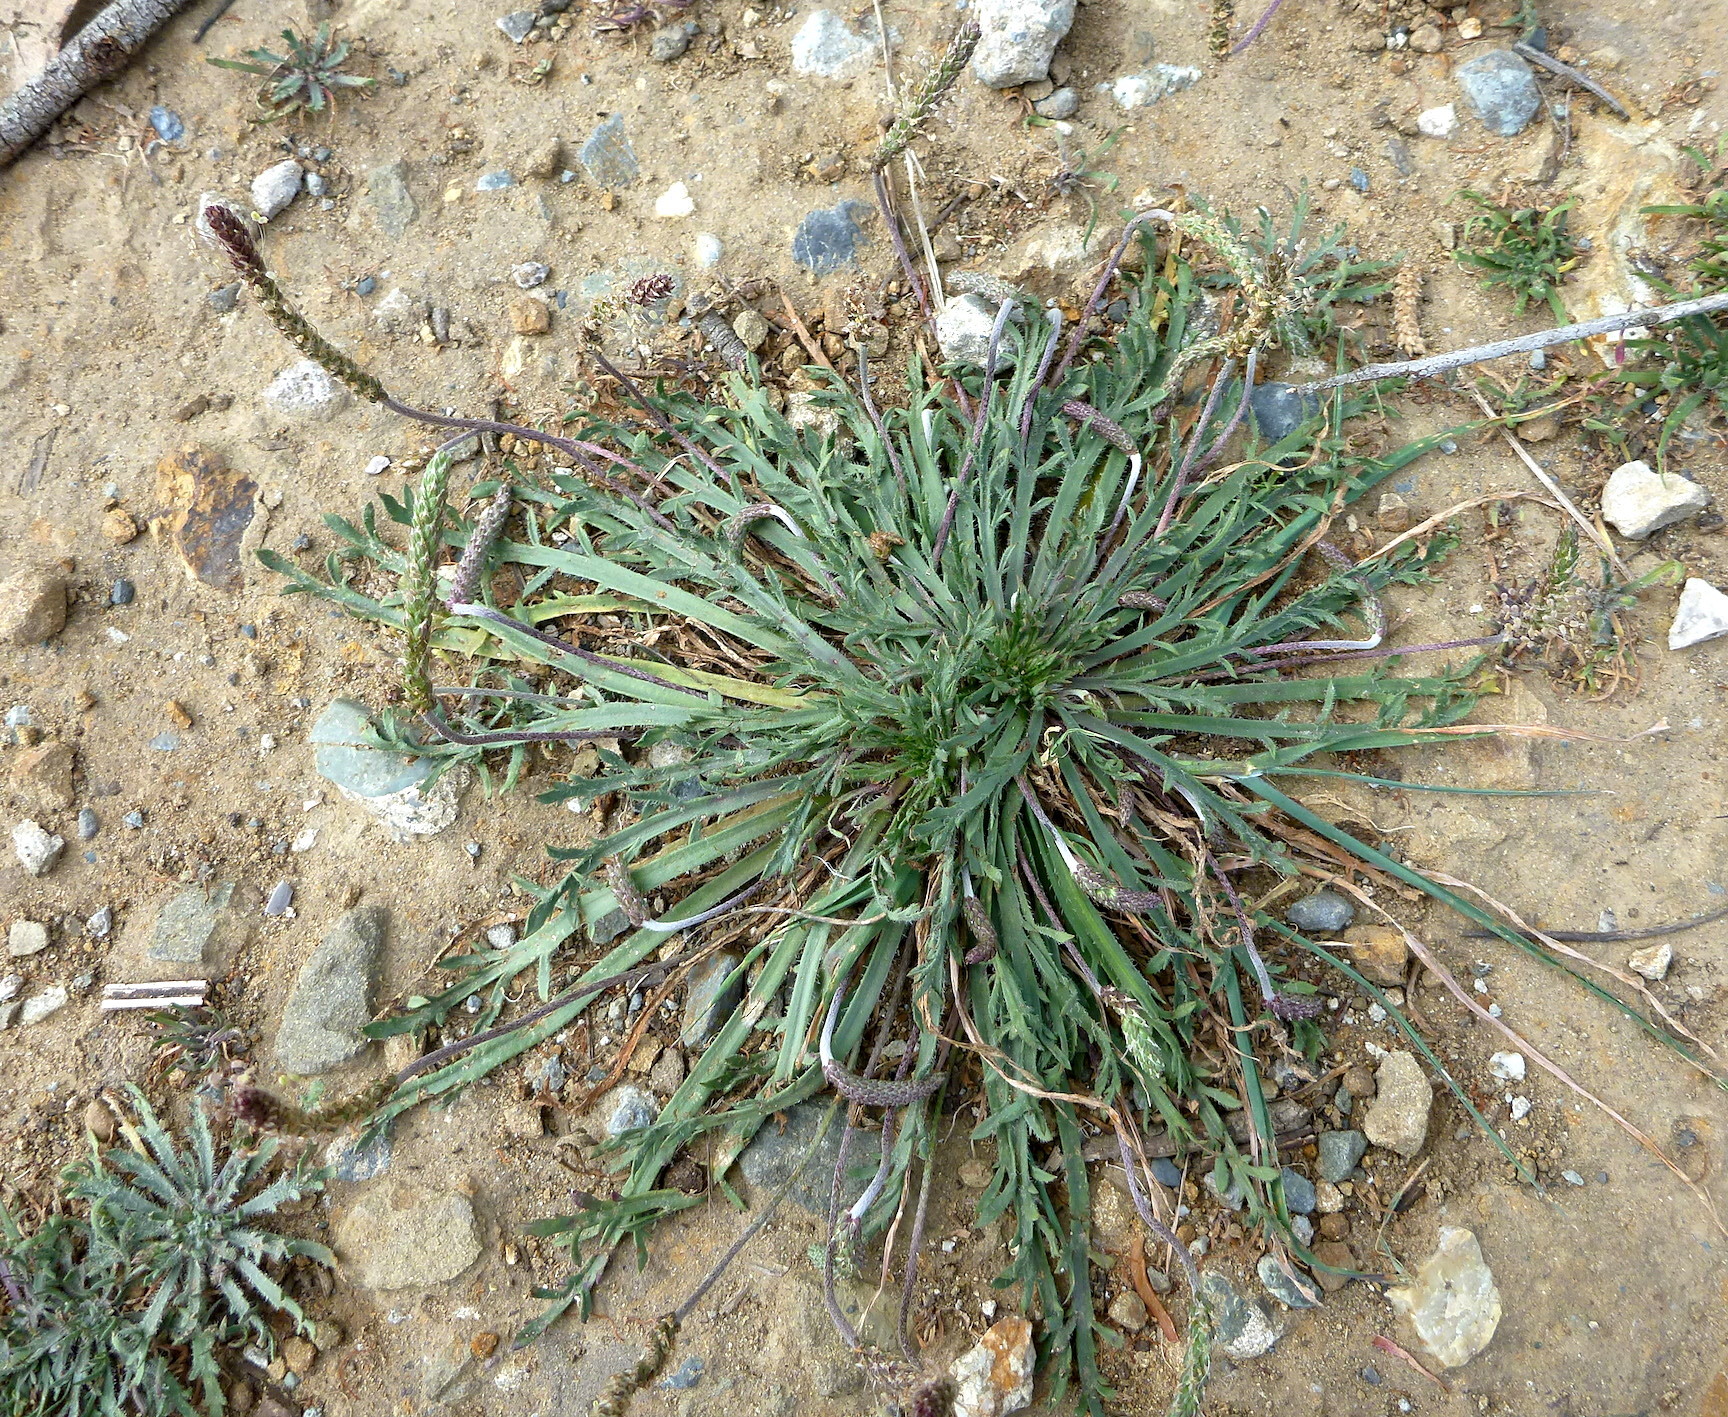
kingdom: Plantae
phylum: Tracheophyta
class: Magnoliopsida
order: Lamiales
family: Plantaginaceae
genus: Plantago
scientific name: Plantago coronopus
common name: Buck's-horn plantain
